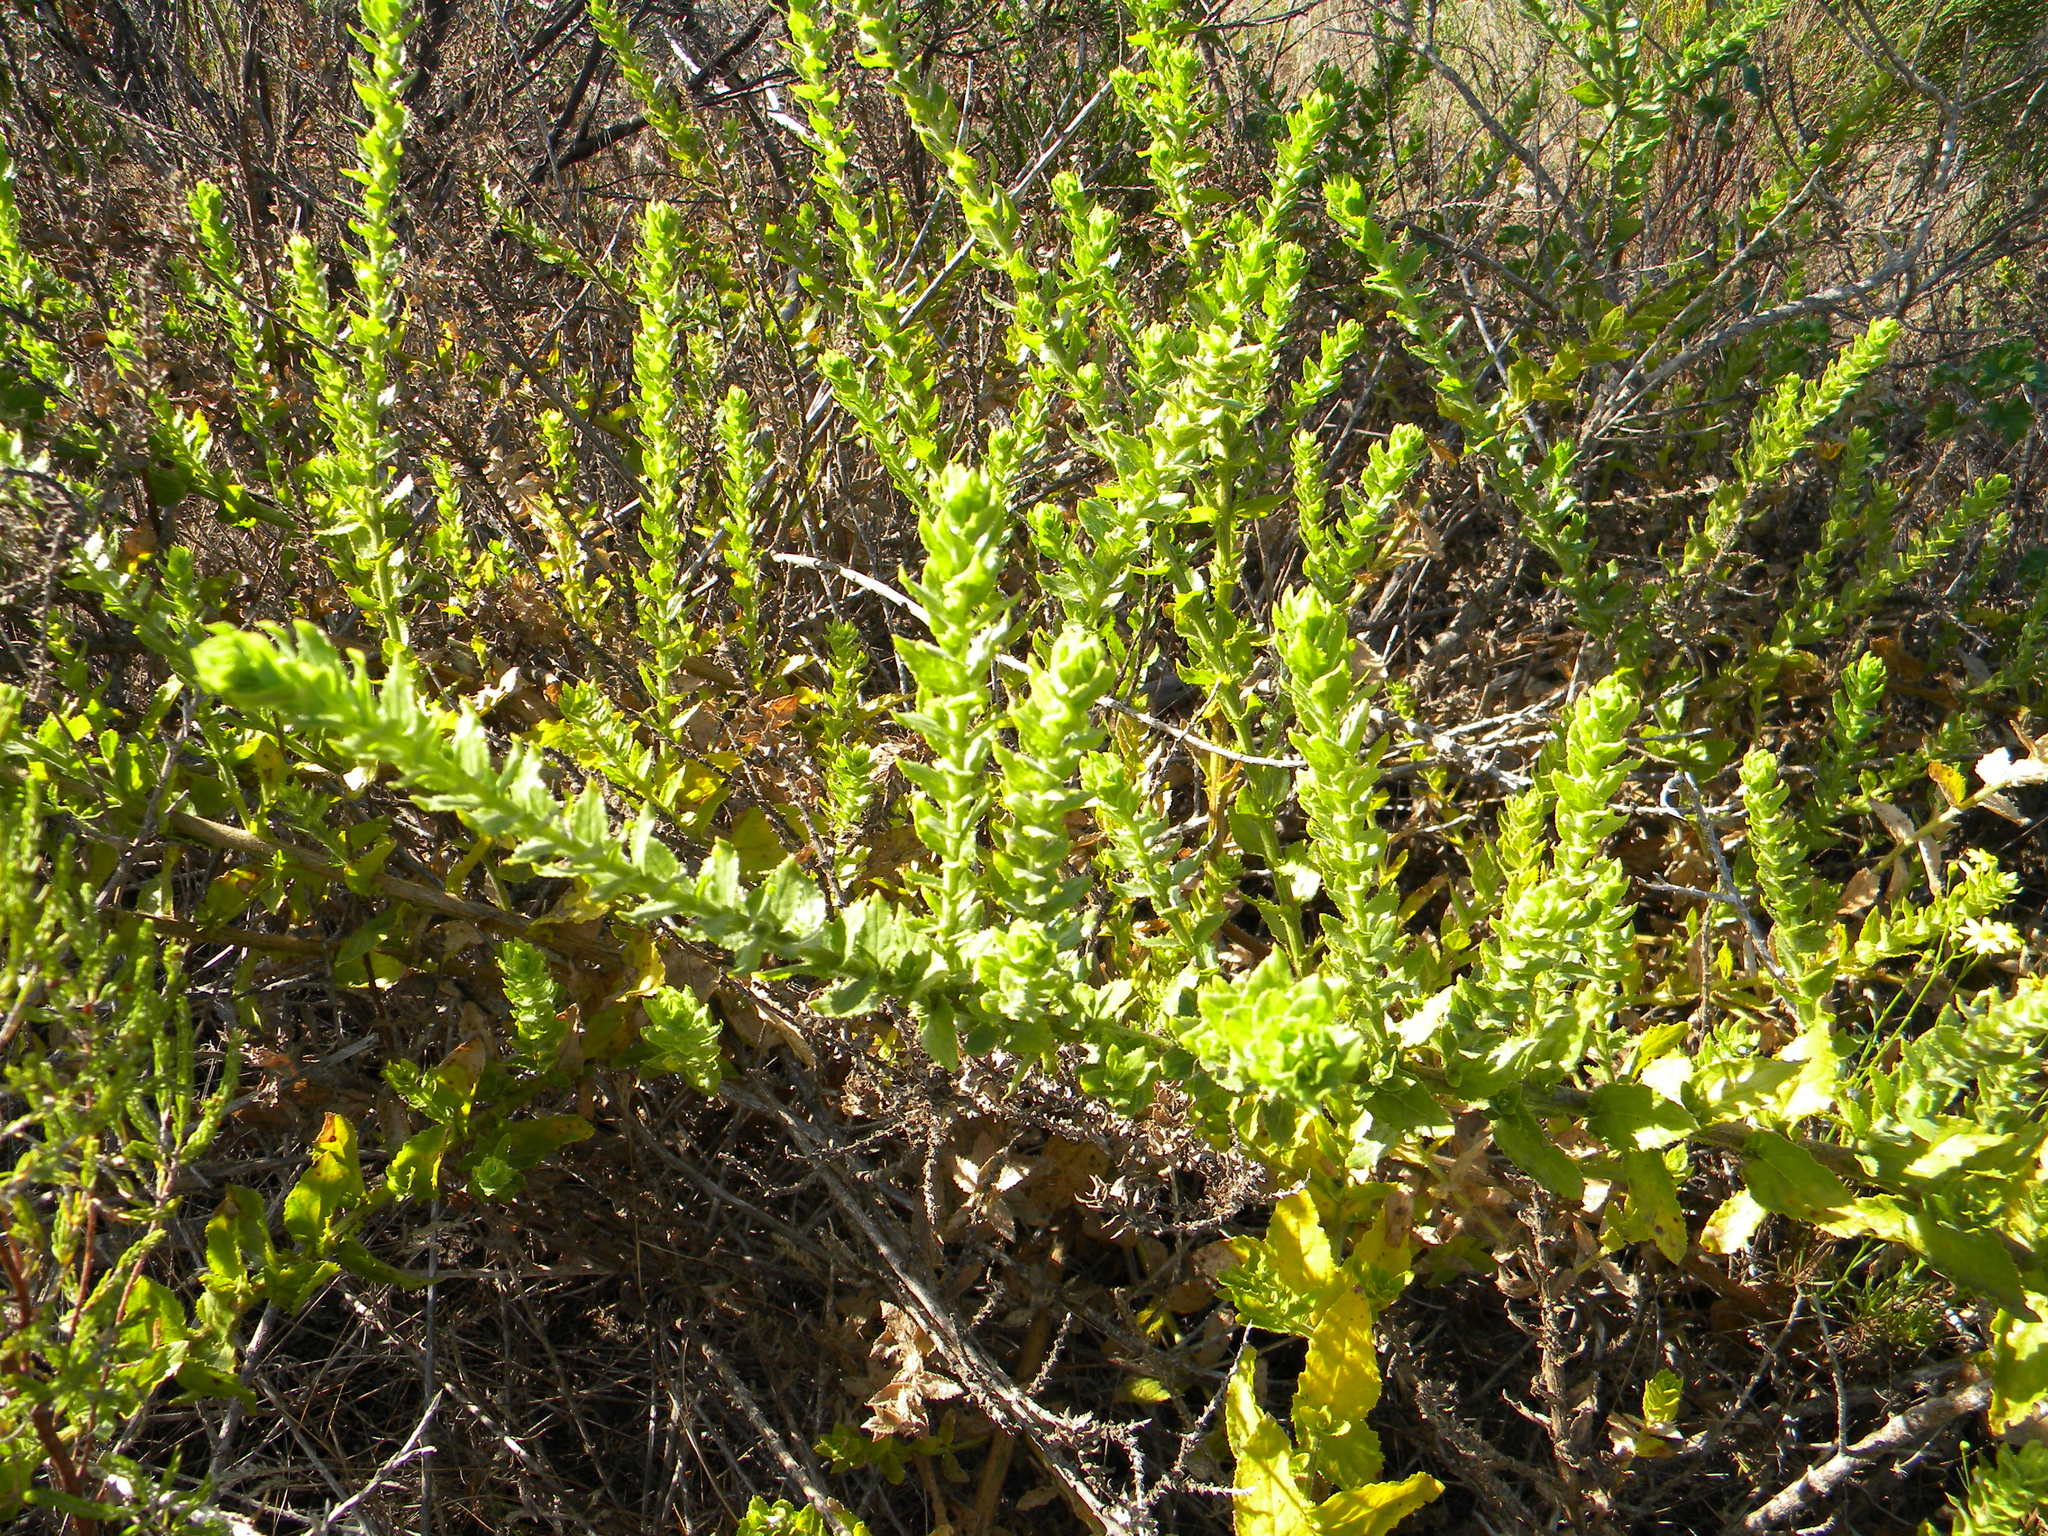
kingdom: Plantae
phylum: Tracheophyta
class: Magnoliopsida
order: Lamiales
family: Scrophulariaceae
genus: Oftia
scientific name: Oftia africana
